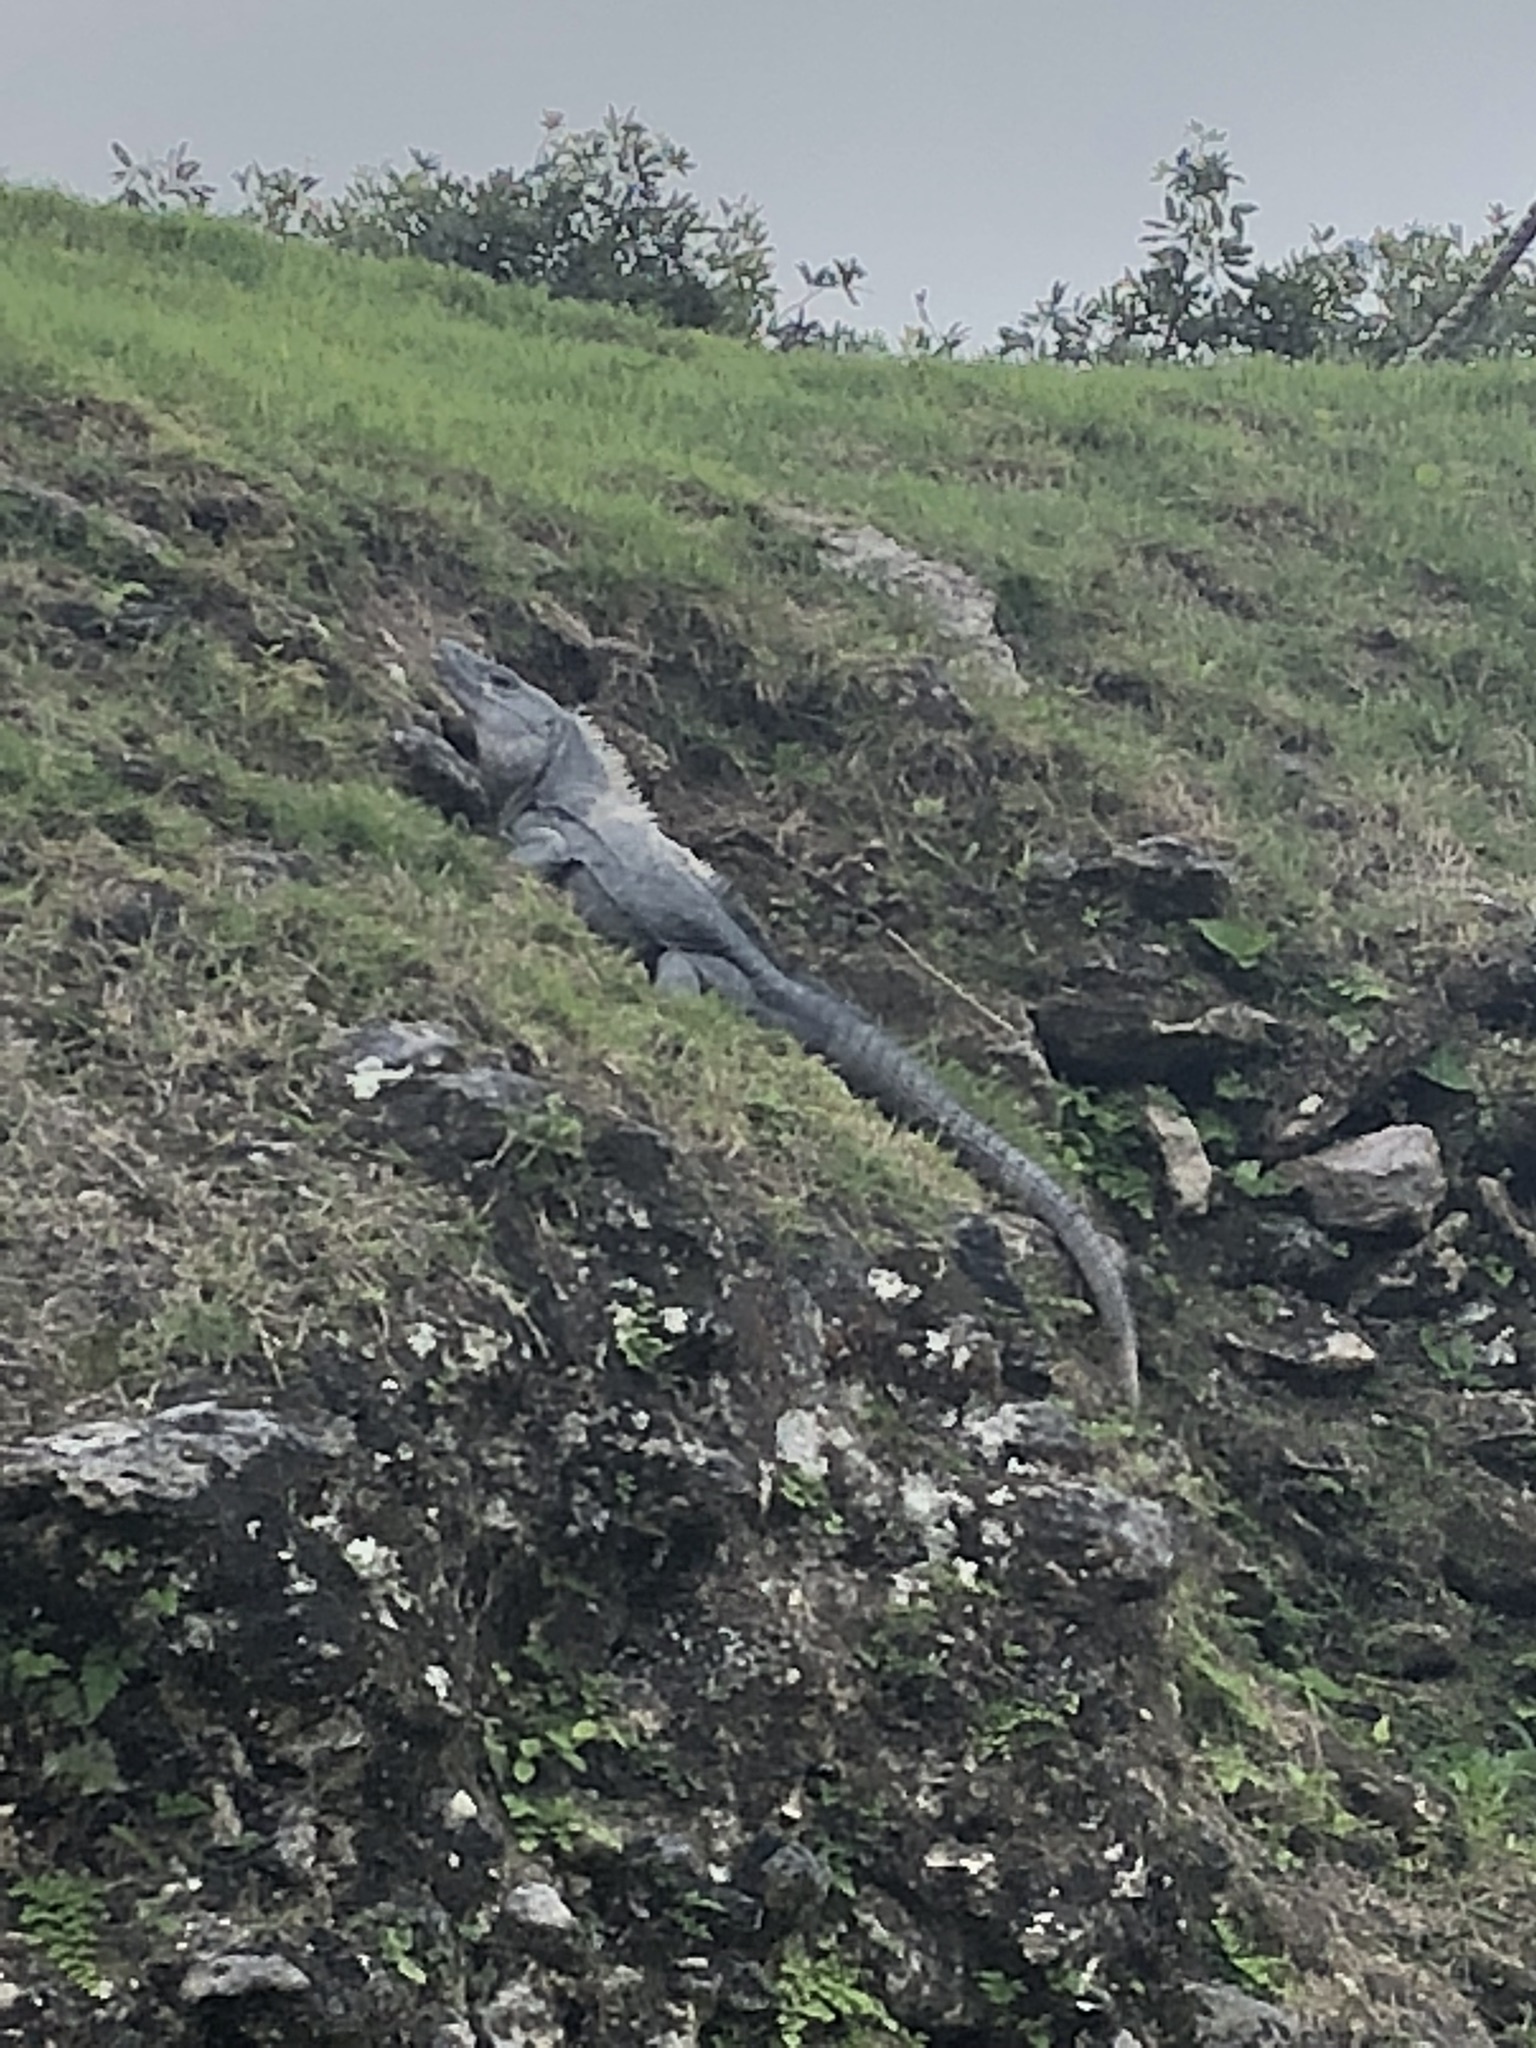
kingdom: Animalia
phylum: Chordata
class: Squamata
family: Iguanidae
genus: Ctenosaura
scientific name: Ctenosaura similis
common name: Black spiny-tailed iguana
